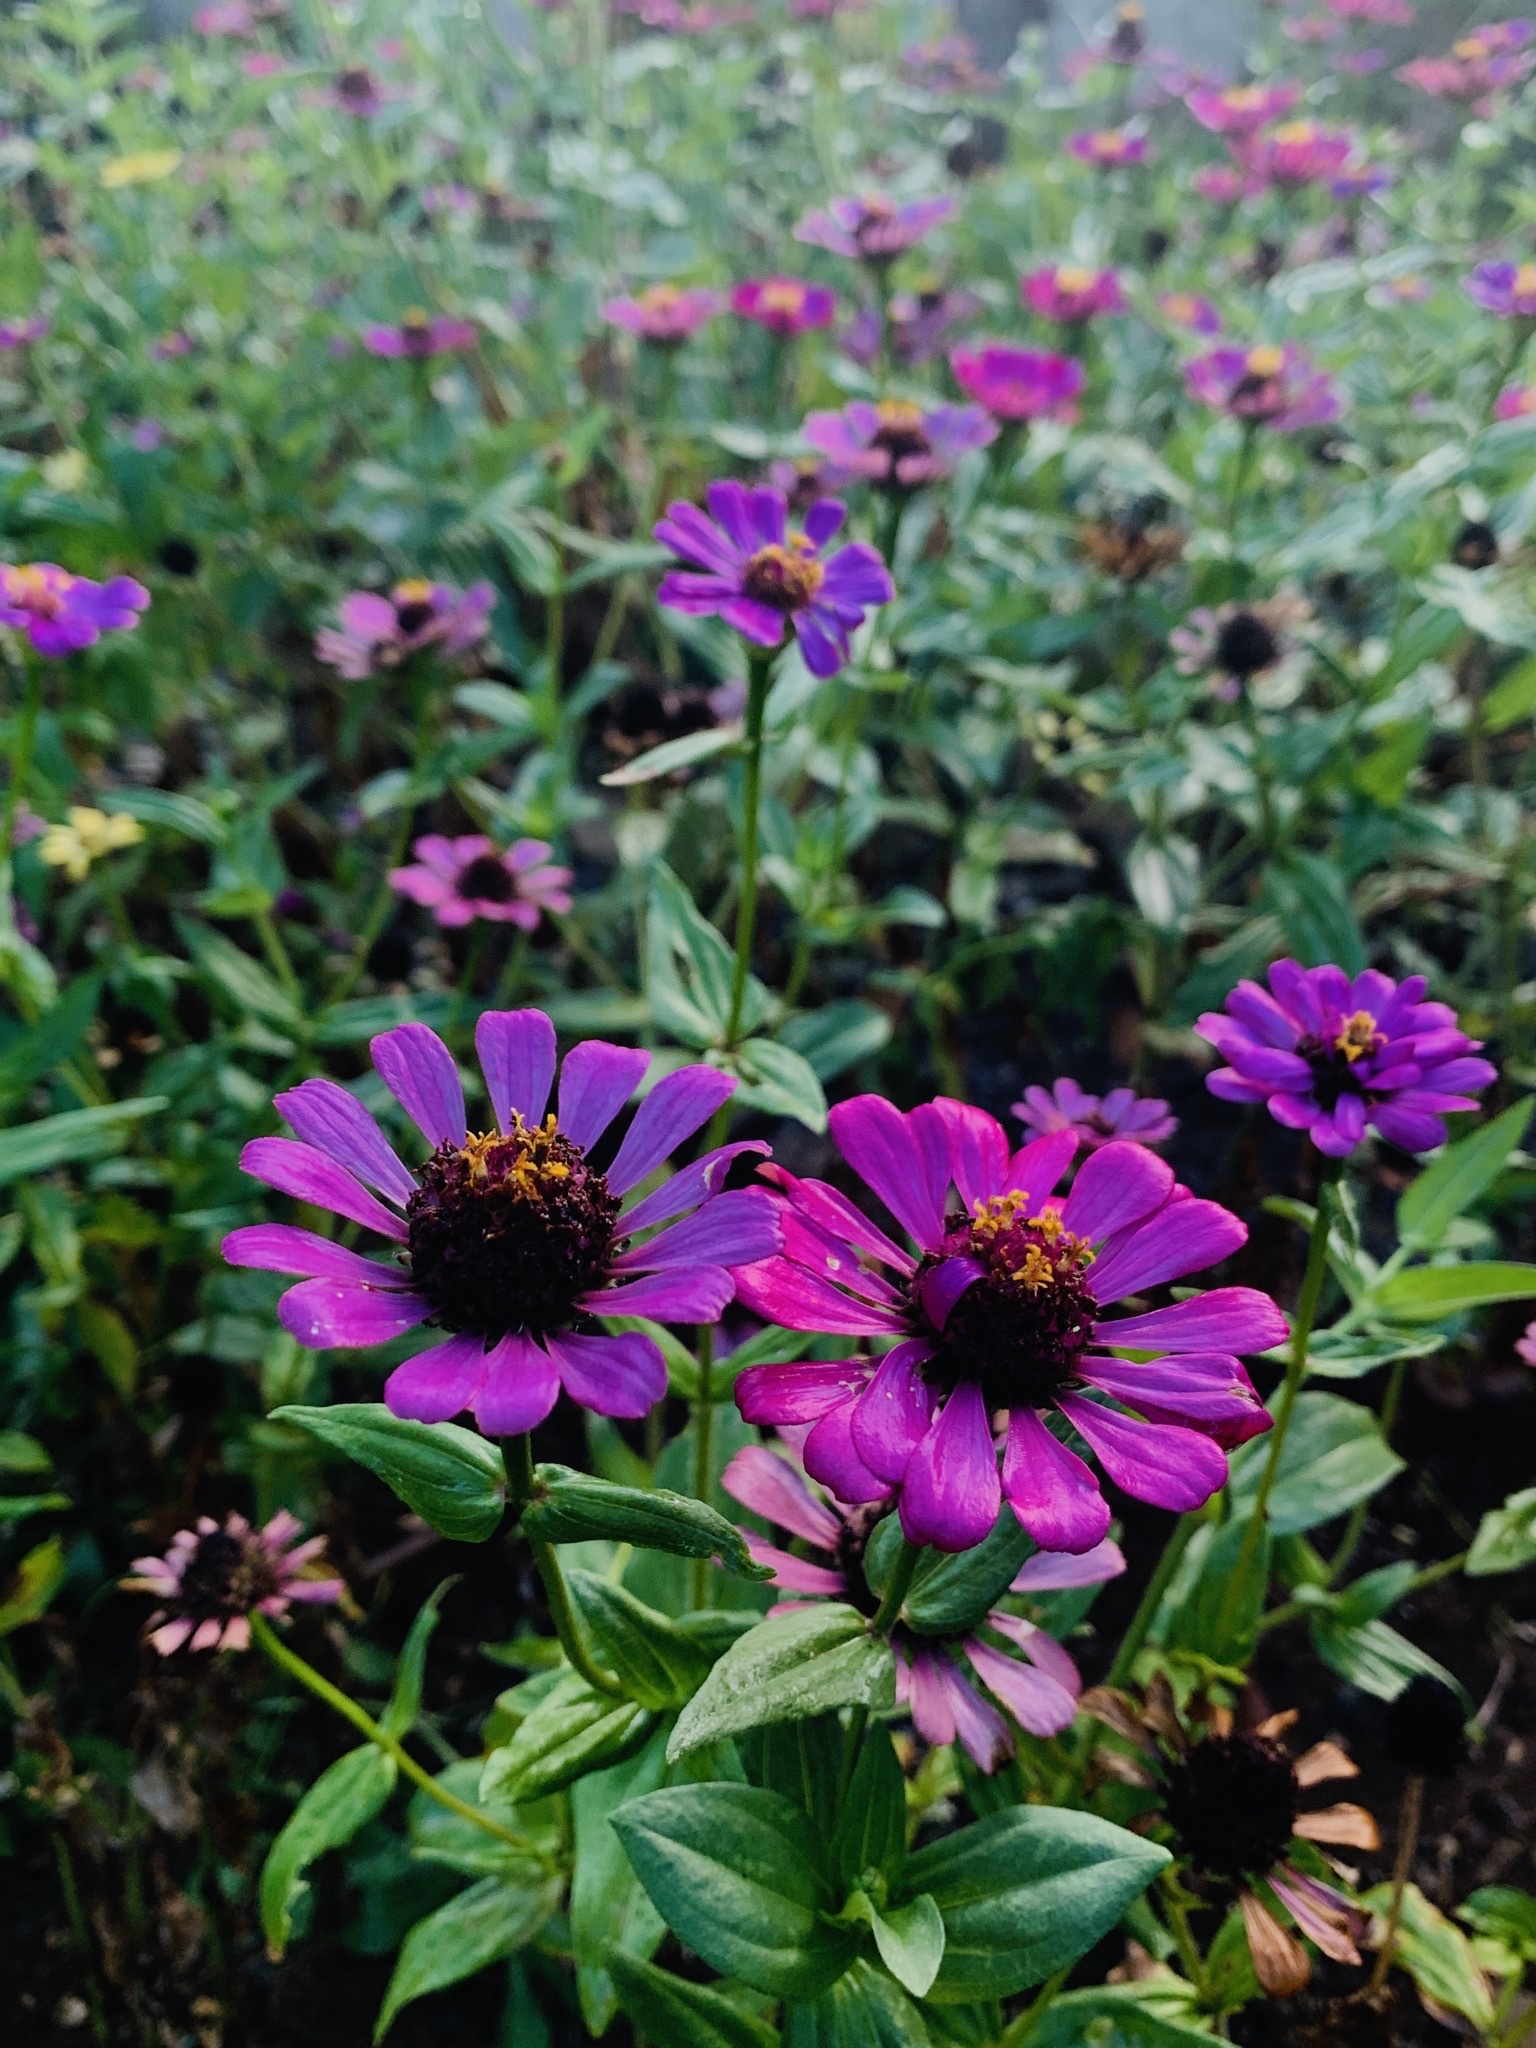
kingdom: Plantae
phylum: Tracheophyta
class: Magnoliopsida
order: Asterales
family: Asteraceae
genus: Zinnia
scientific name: Zinnia elegans
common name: Youth-and-age
